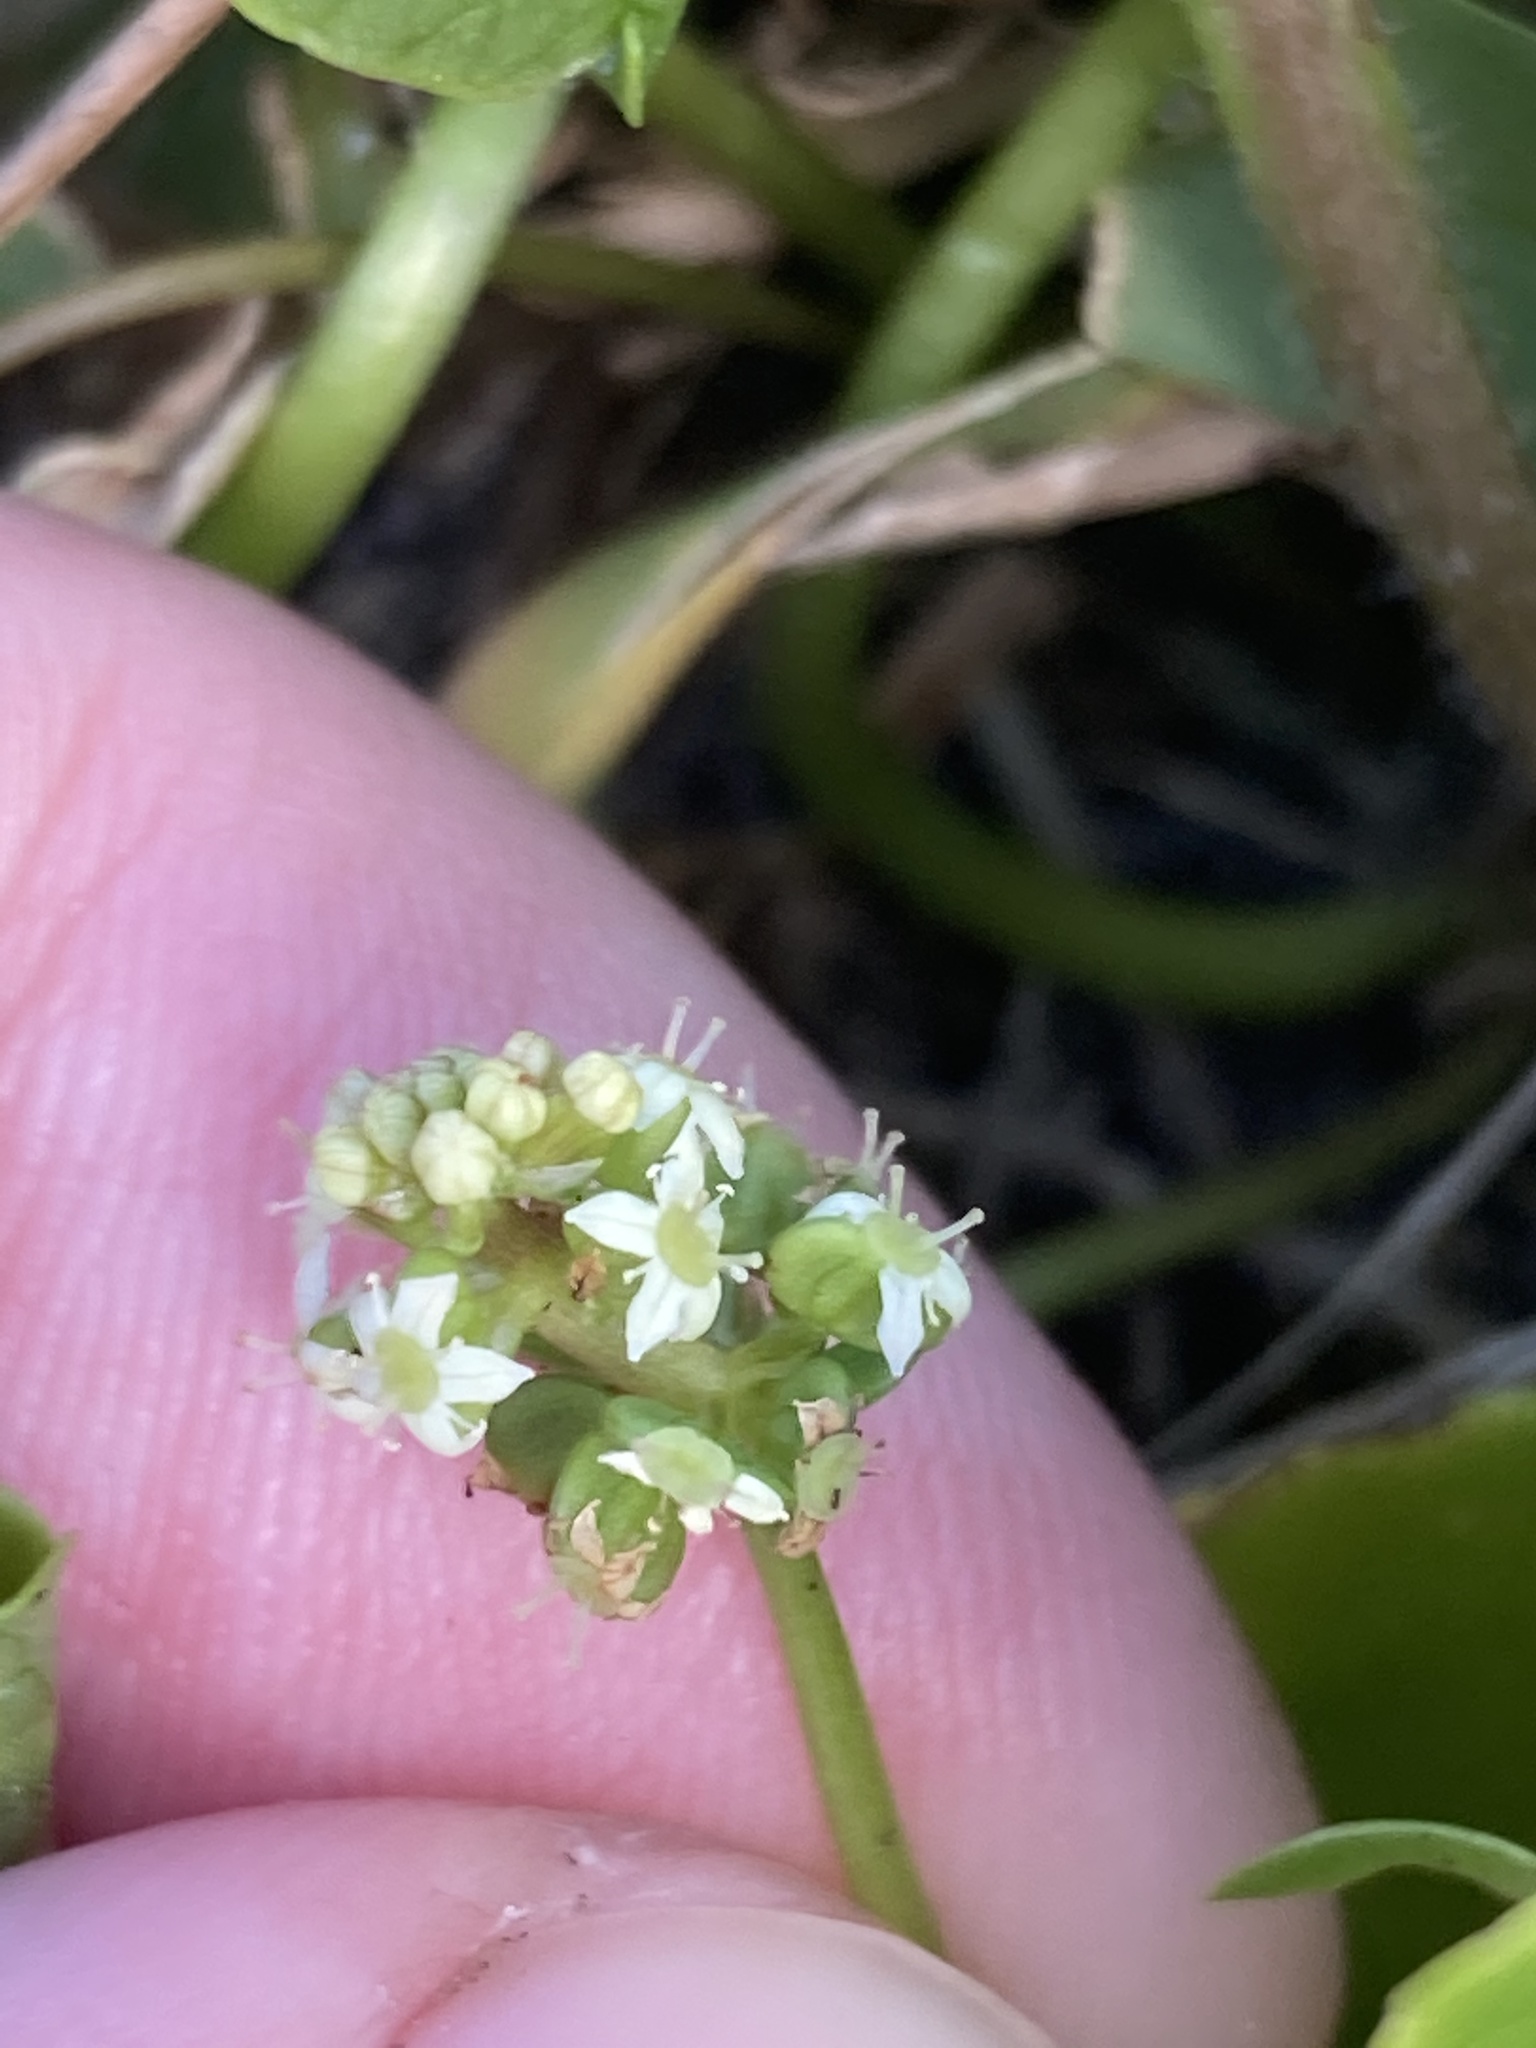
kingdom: Plantae
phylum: Tracheophyta
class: Magnoliopsida
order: Apiales
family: Araliaceae
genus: Hydrocotyle
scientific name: Hydrocotyle verticillata
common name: Whorled marshpennywort
